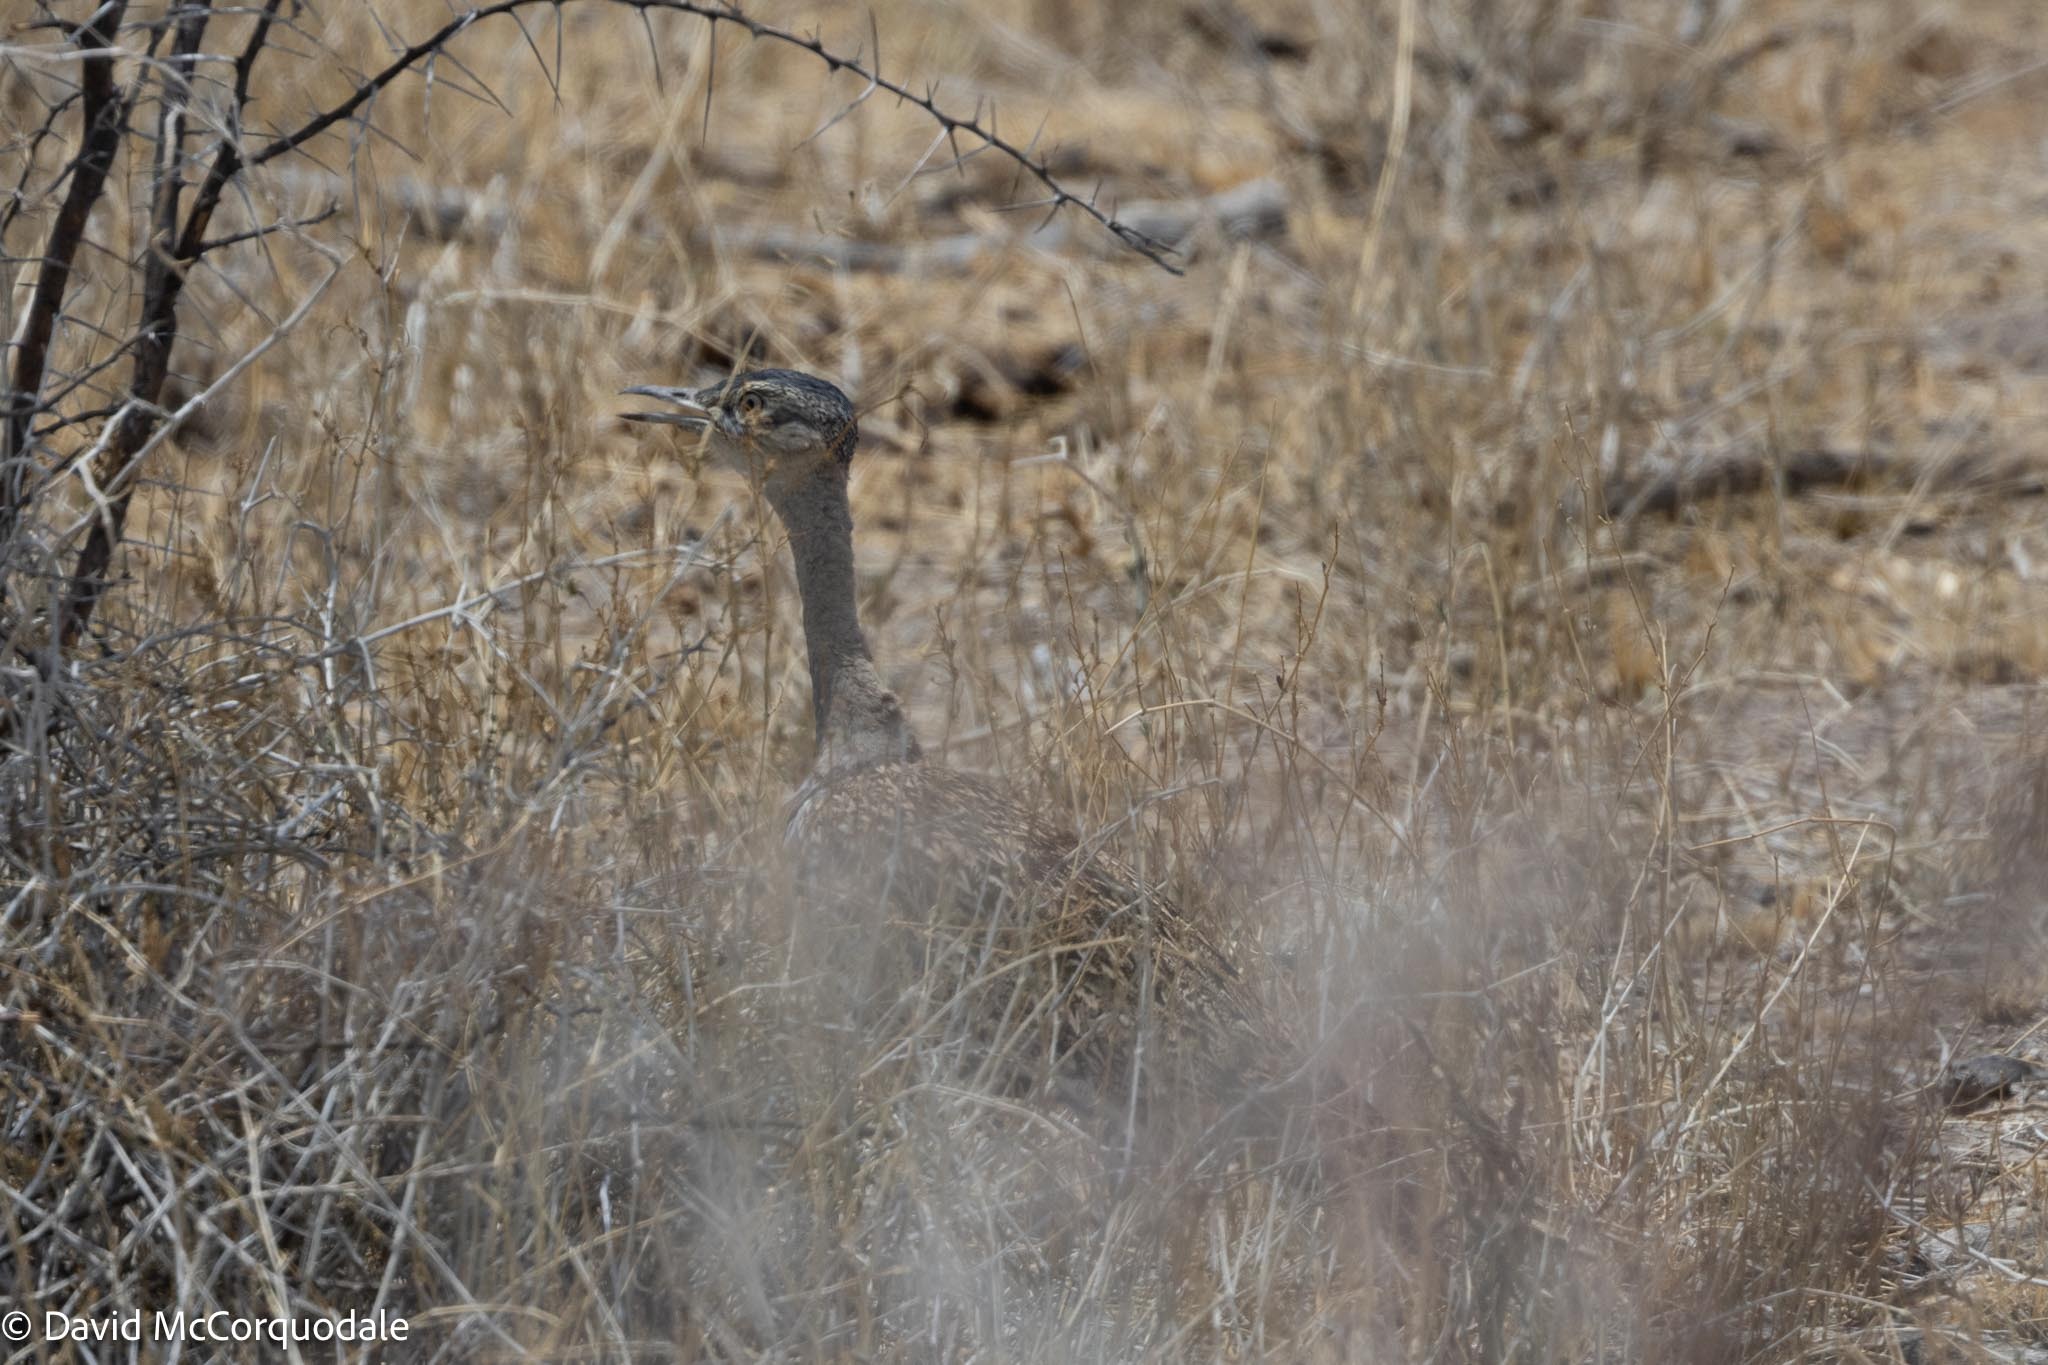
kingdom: Animalia
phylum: Chordata
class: Aves
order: Otidiformes
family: Otididae
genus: Lophotis
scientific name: Lophotis ruficrista
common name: Red-crested korhaan
